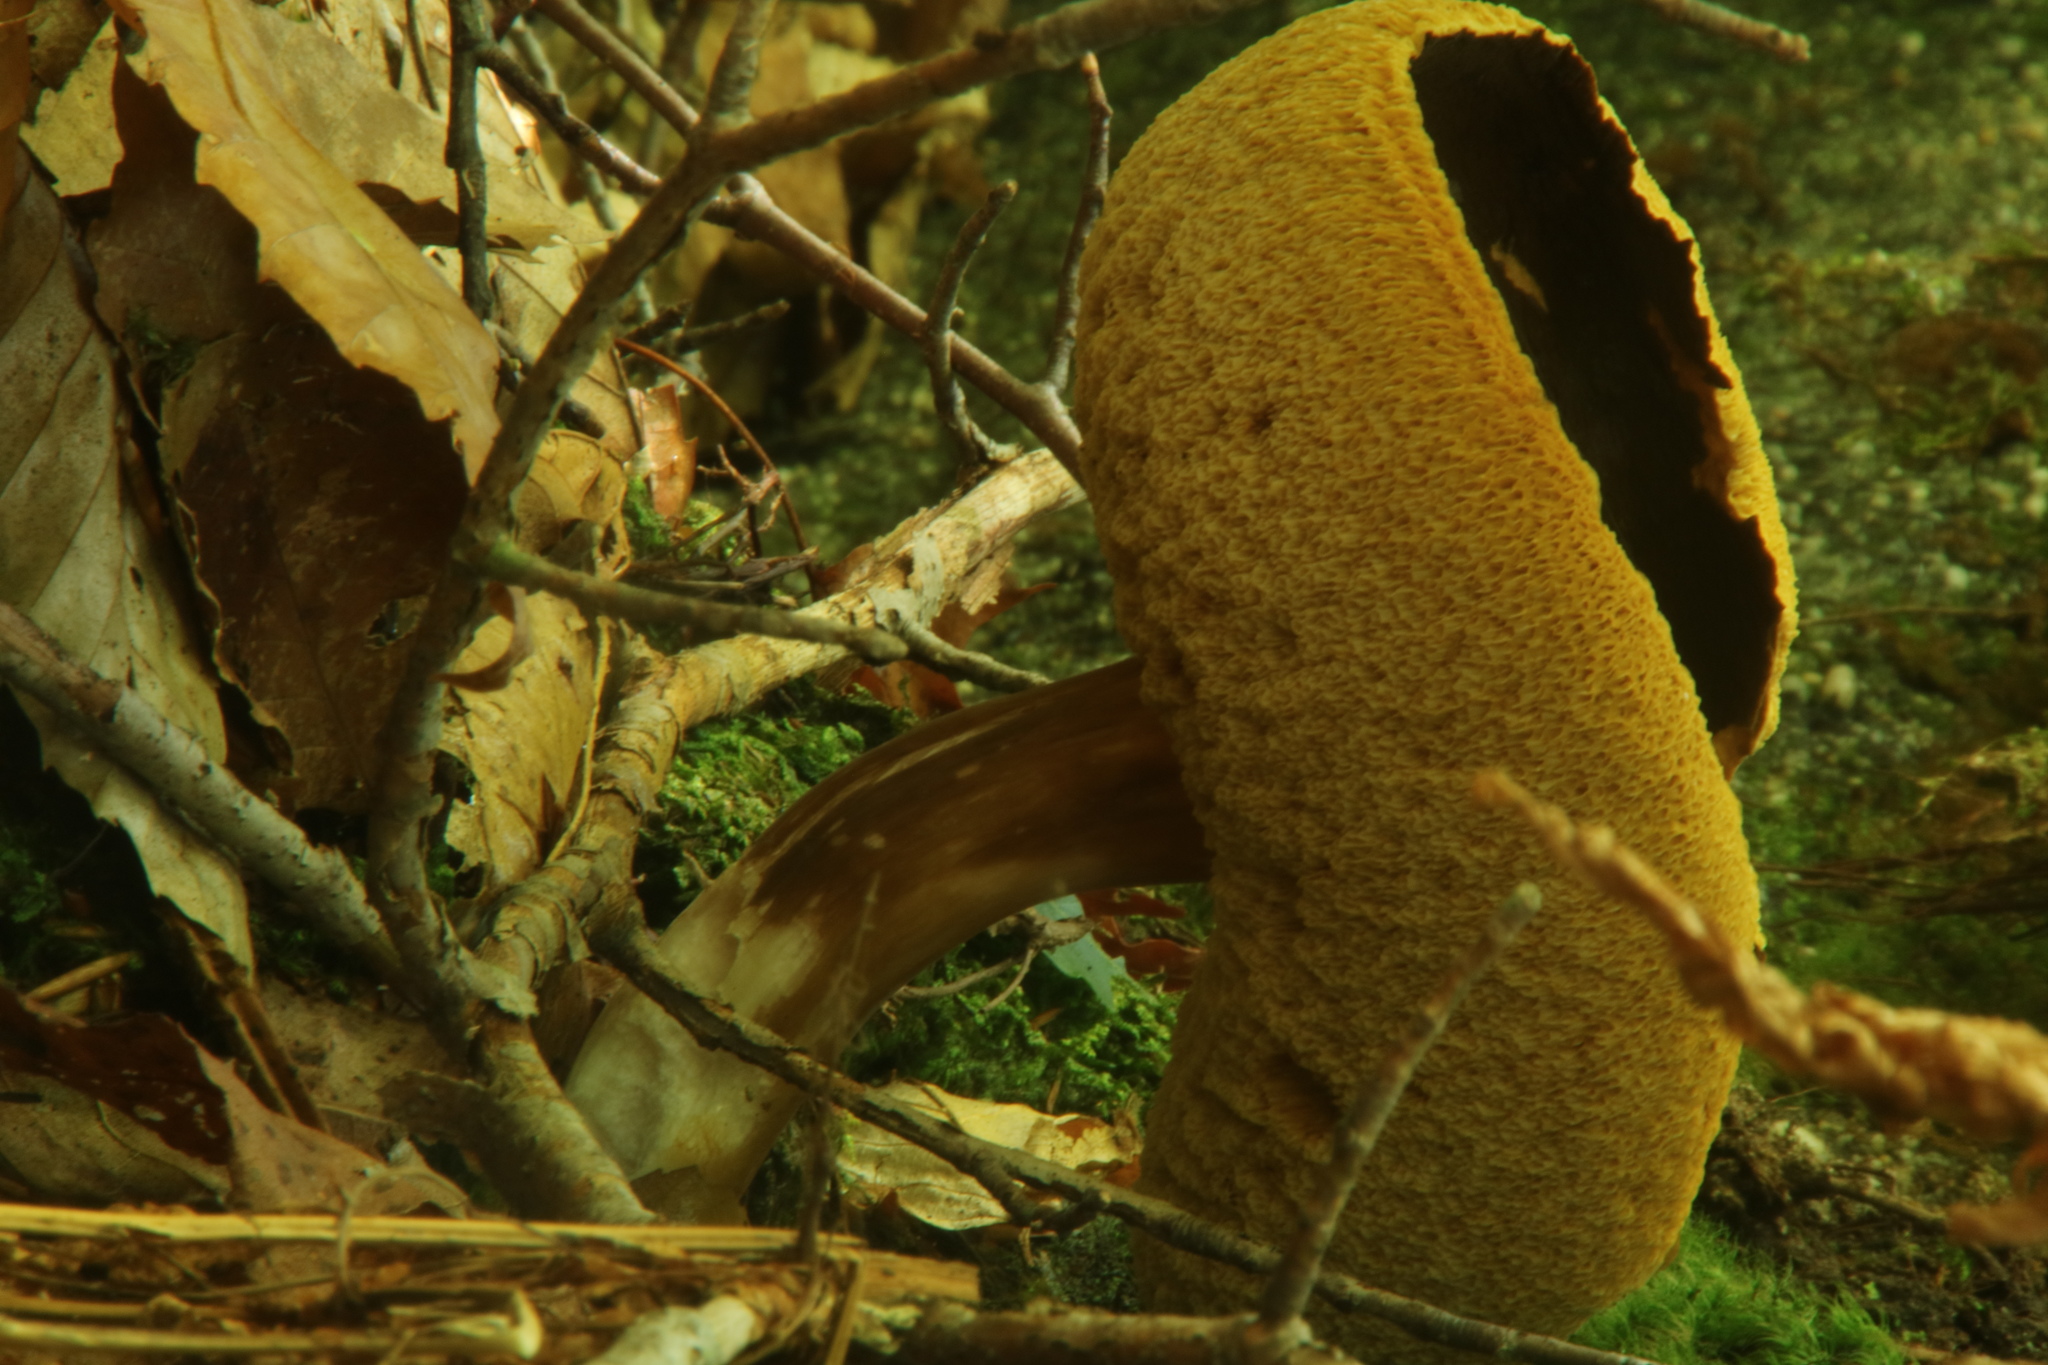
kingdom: Fungi
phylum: Basidiomycota
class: Agaricomycetes
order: Boletales
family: Boletaceae
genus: Xanthoconium
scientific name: Xanthoconium affine
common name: Spotted bolete
